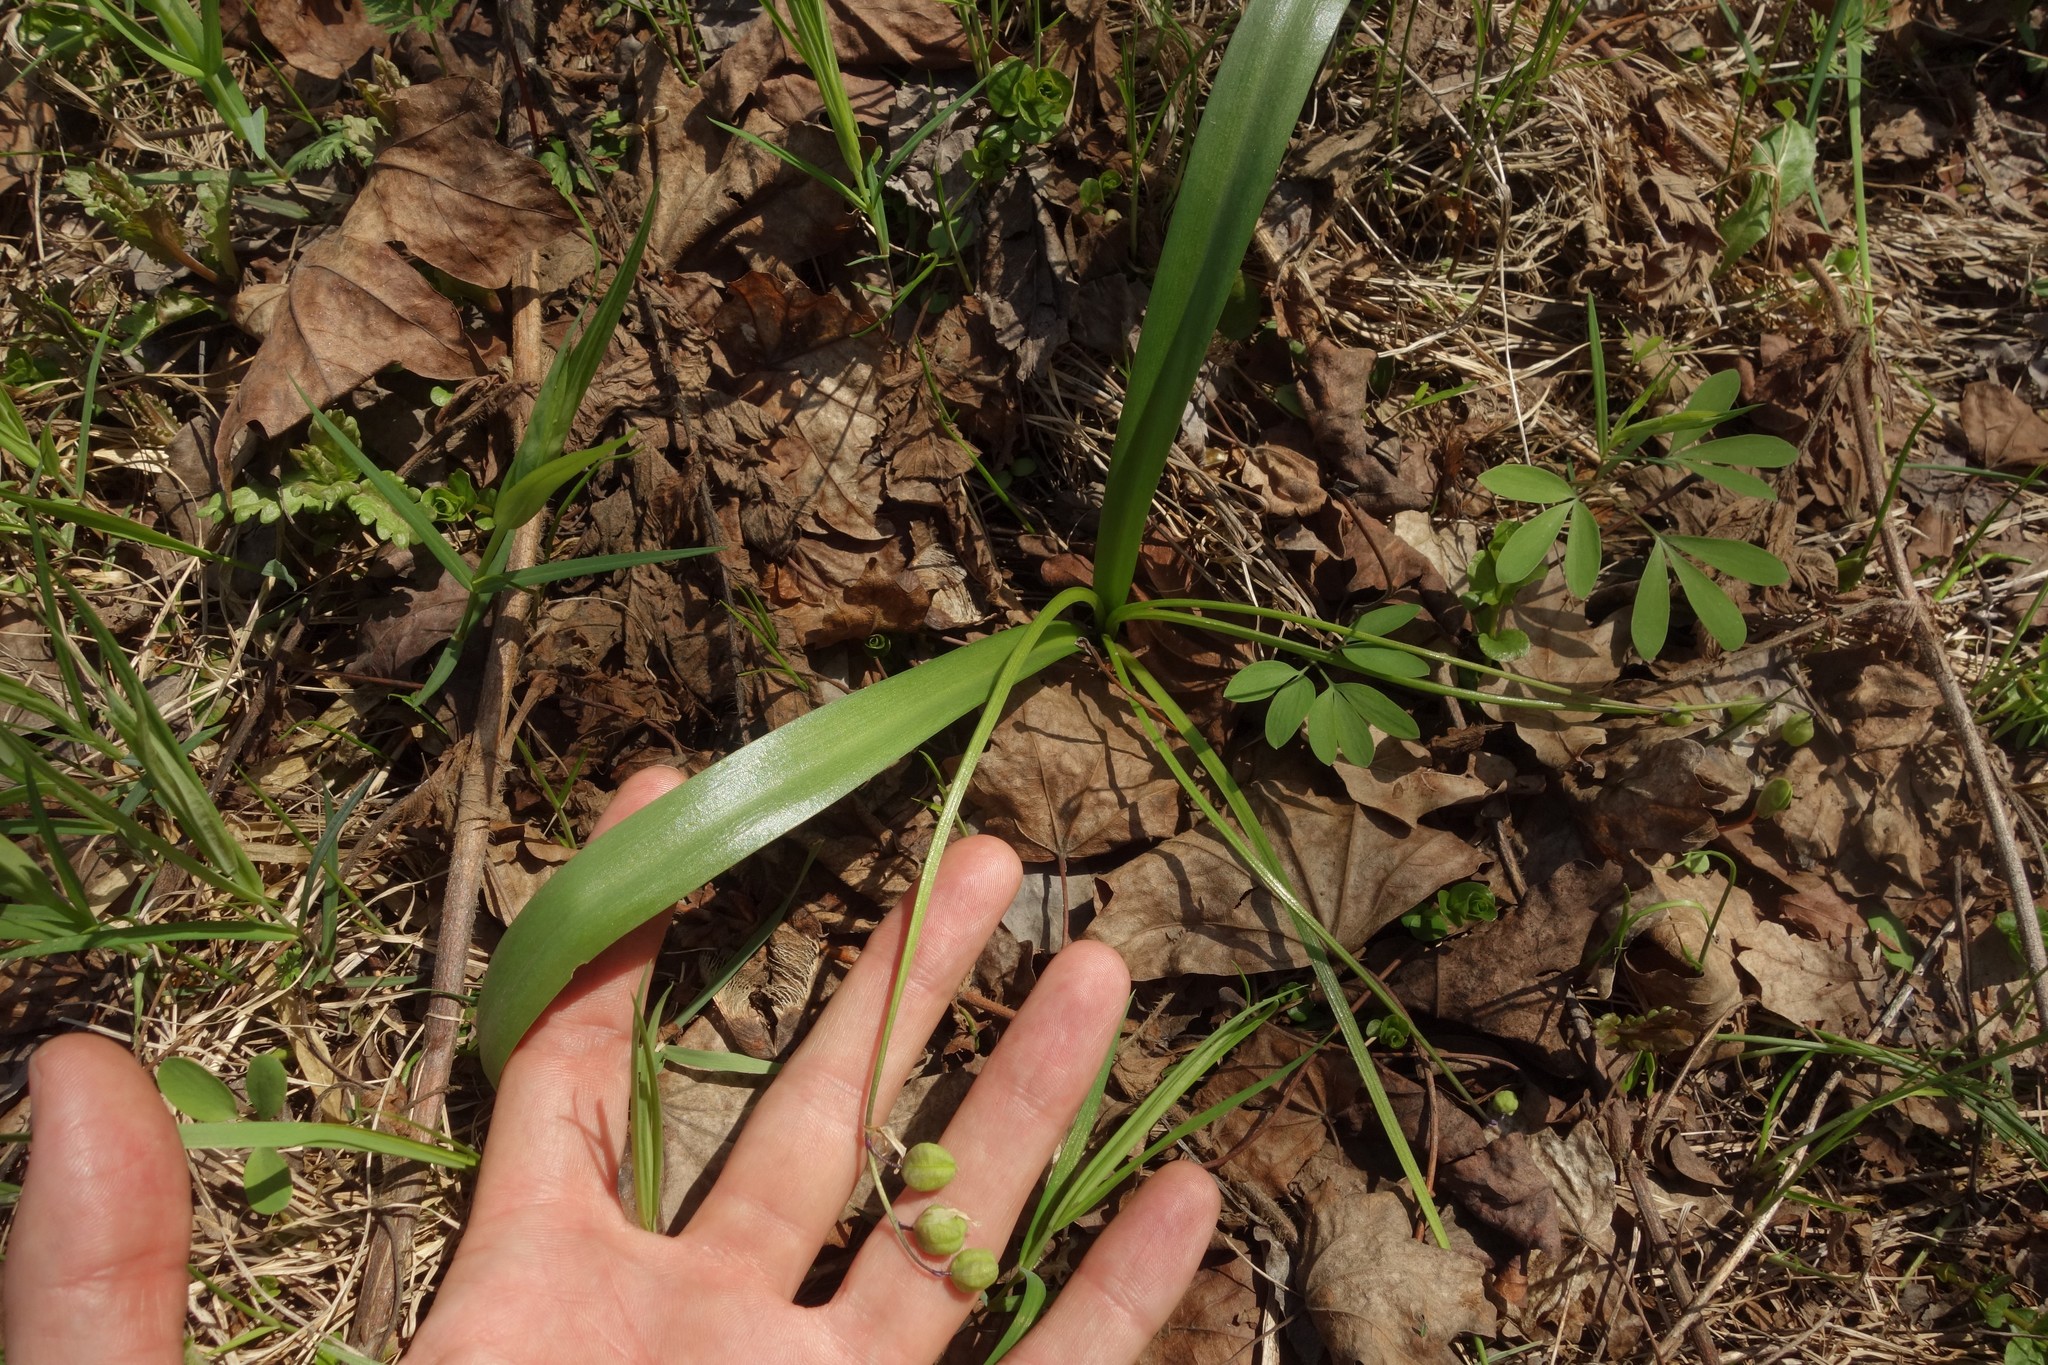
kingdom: Plantae
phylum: Tracheophyta
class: Liliopsida
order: Asparagales
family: Asparagaceae
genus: Scilla
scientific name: Scilla siberica
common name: Siberian squill
